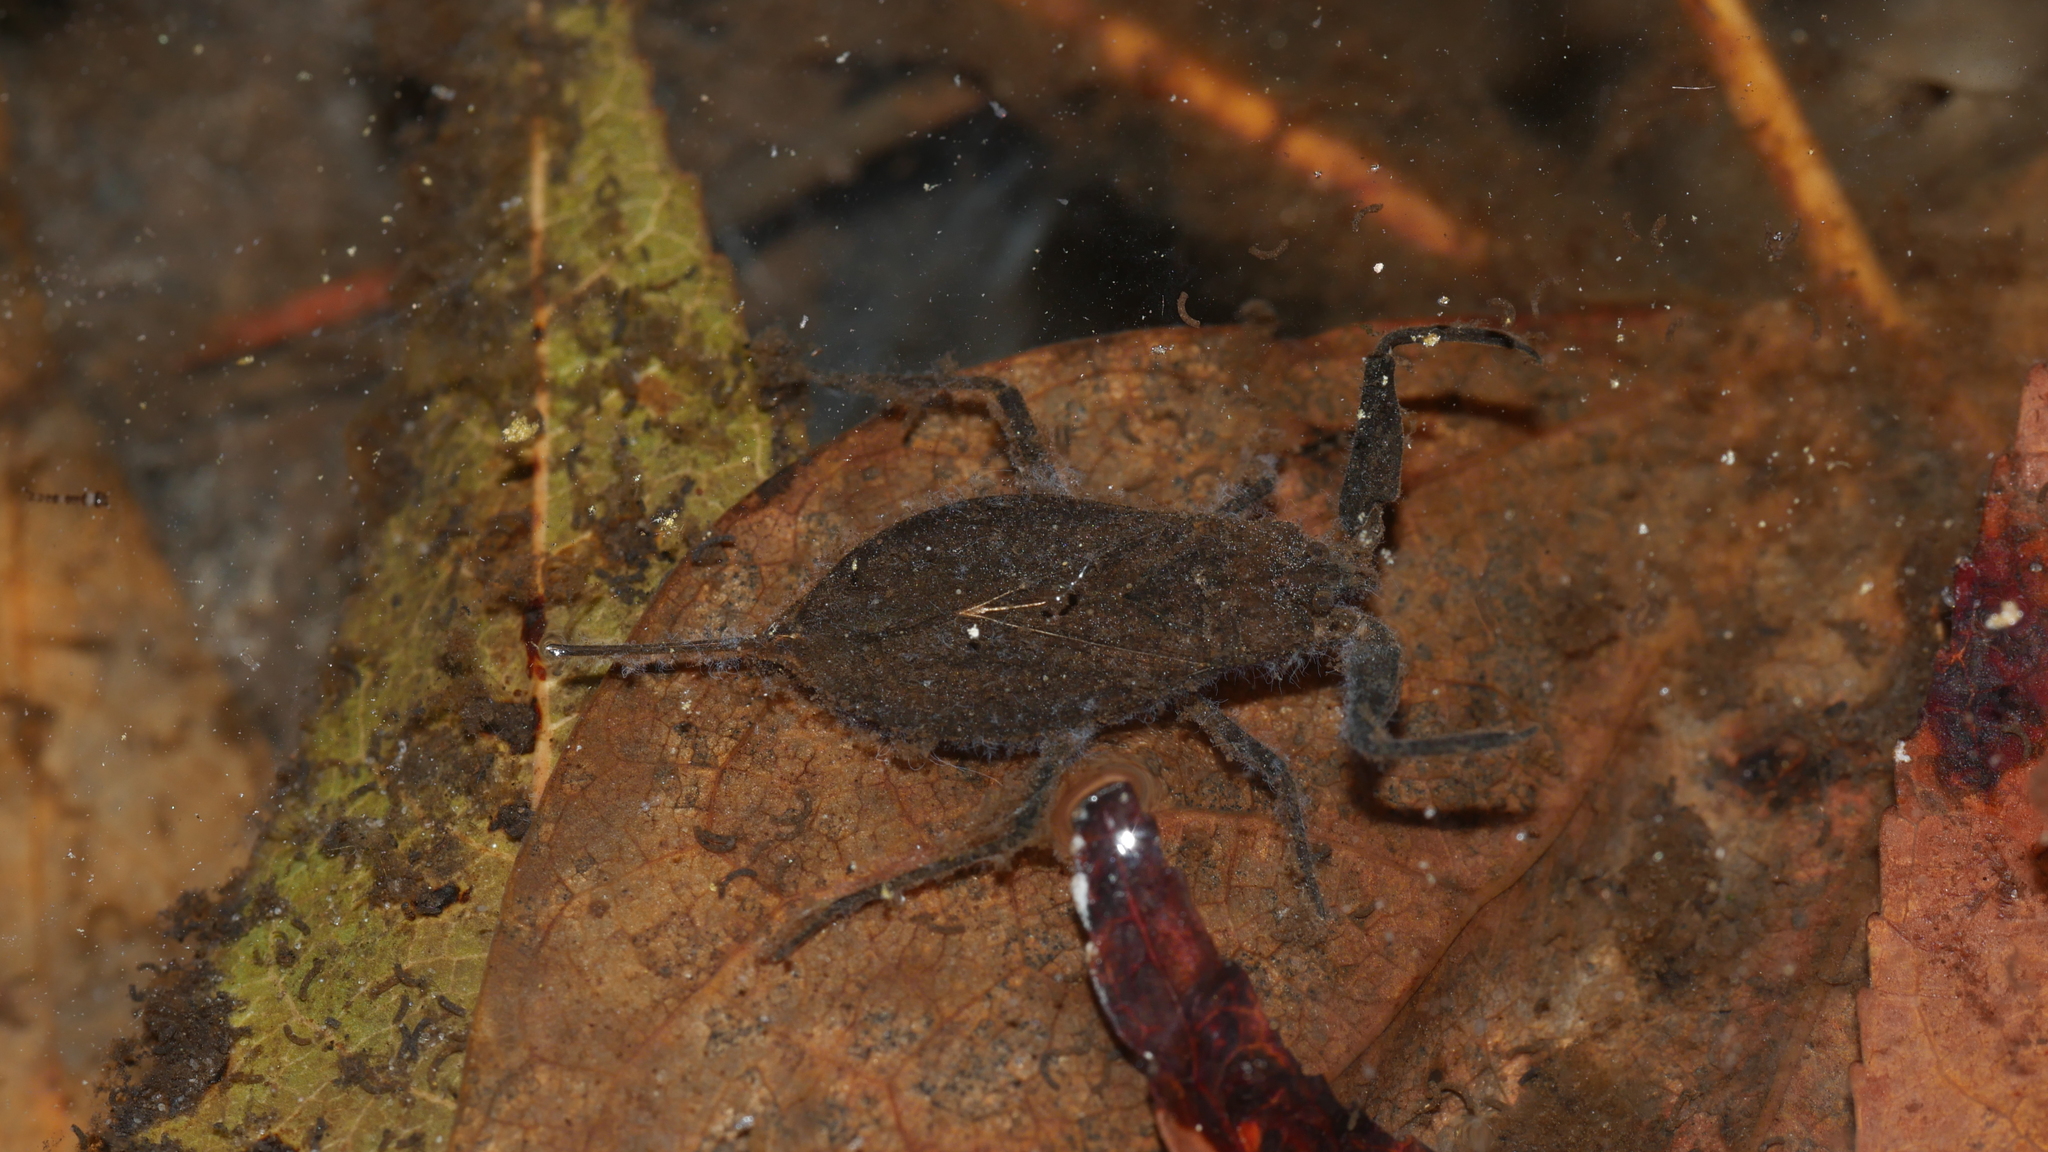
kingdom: Animalia
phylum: Arthropoda
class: Insecta
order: Hemiptera
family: Nepidae
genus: Nepa
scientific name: Nepa apiculata
